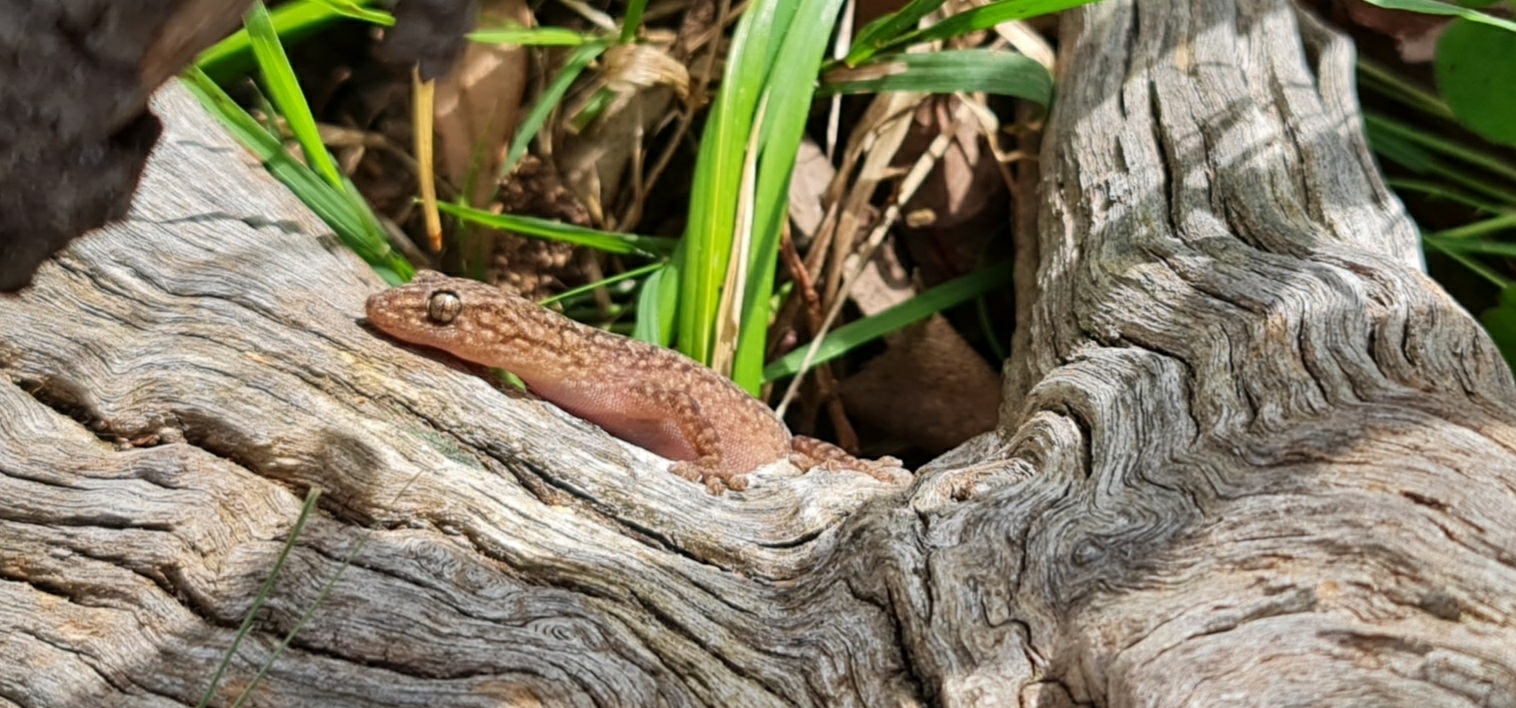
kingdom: Animalia
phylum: Chordata
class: Squamata
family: Gekkonidae
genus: Christinus
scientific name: Christinus marmoratus
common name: Marbled gecko
